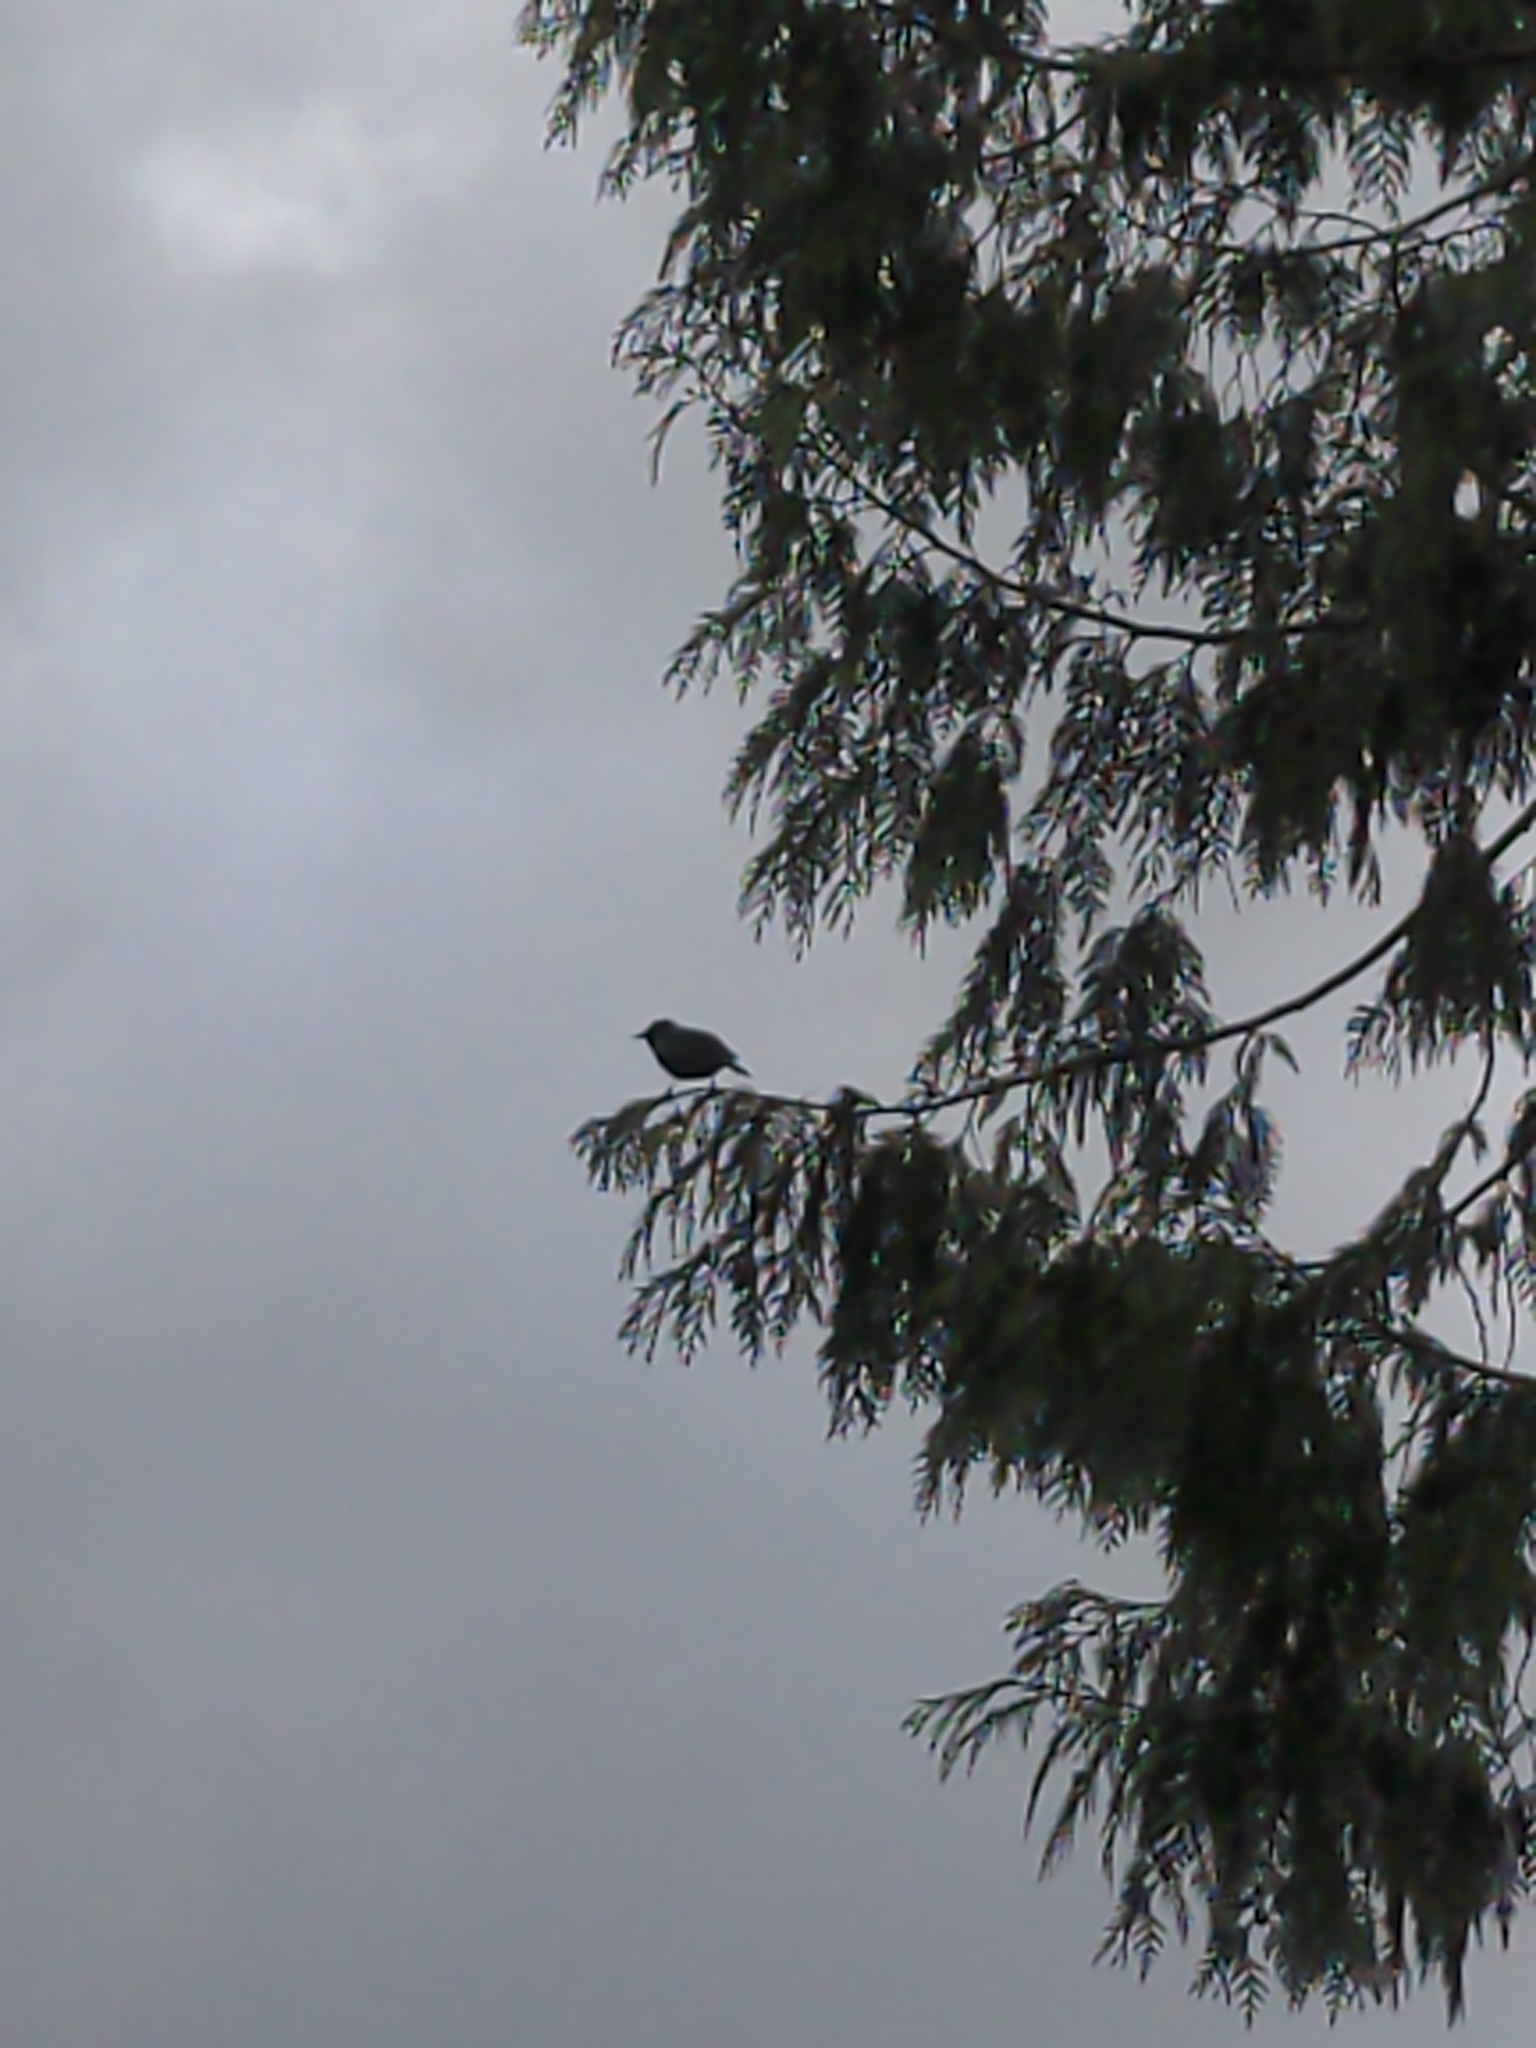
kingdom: Animalia
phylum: Chordata
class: Aves
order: Passeriformes
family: Sturnidae
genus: Sturnus
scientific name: Sturnus vulgaris
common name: Common starling
